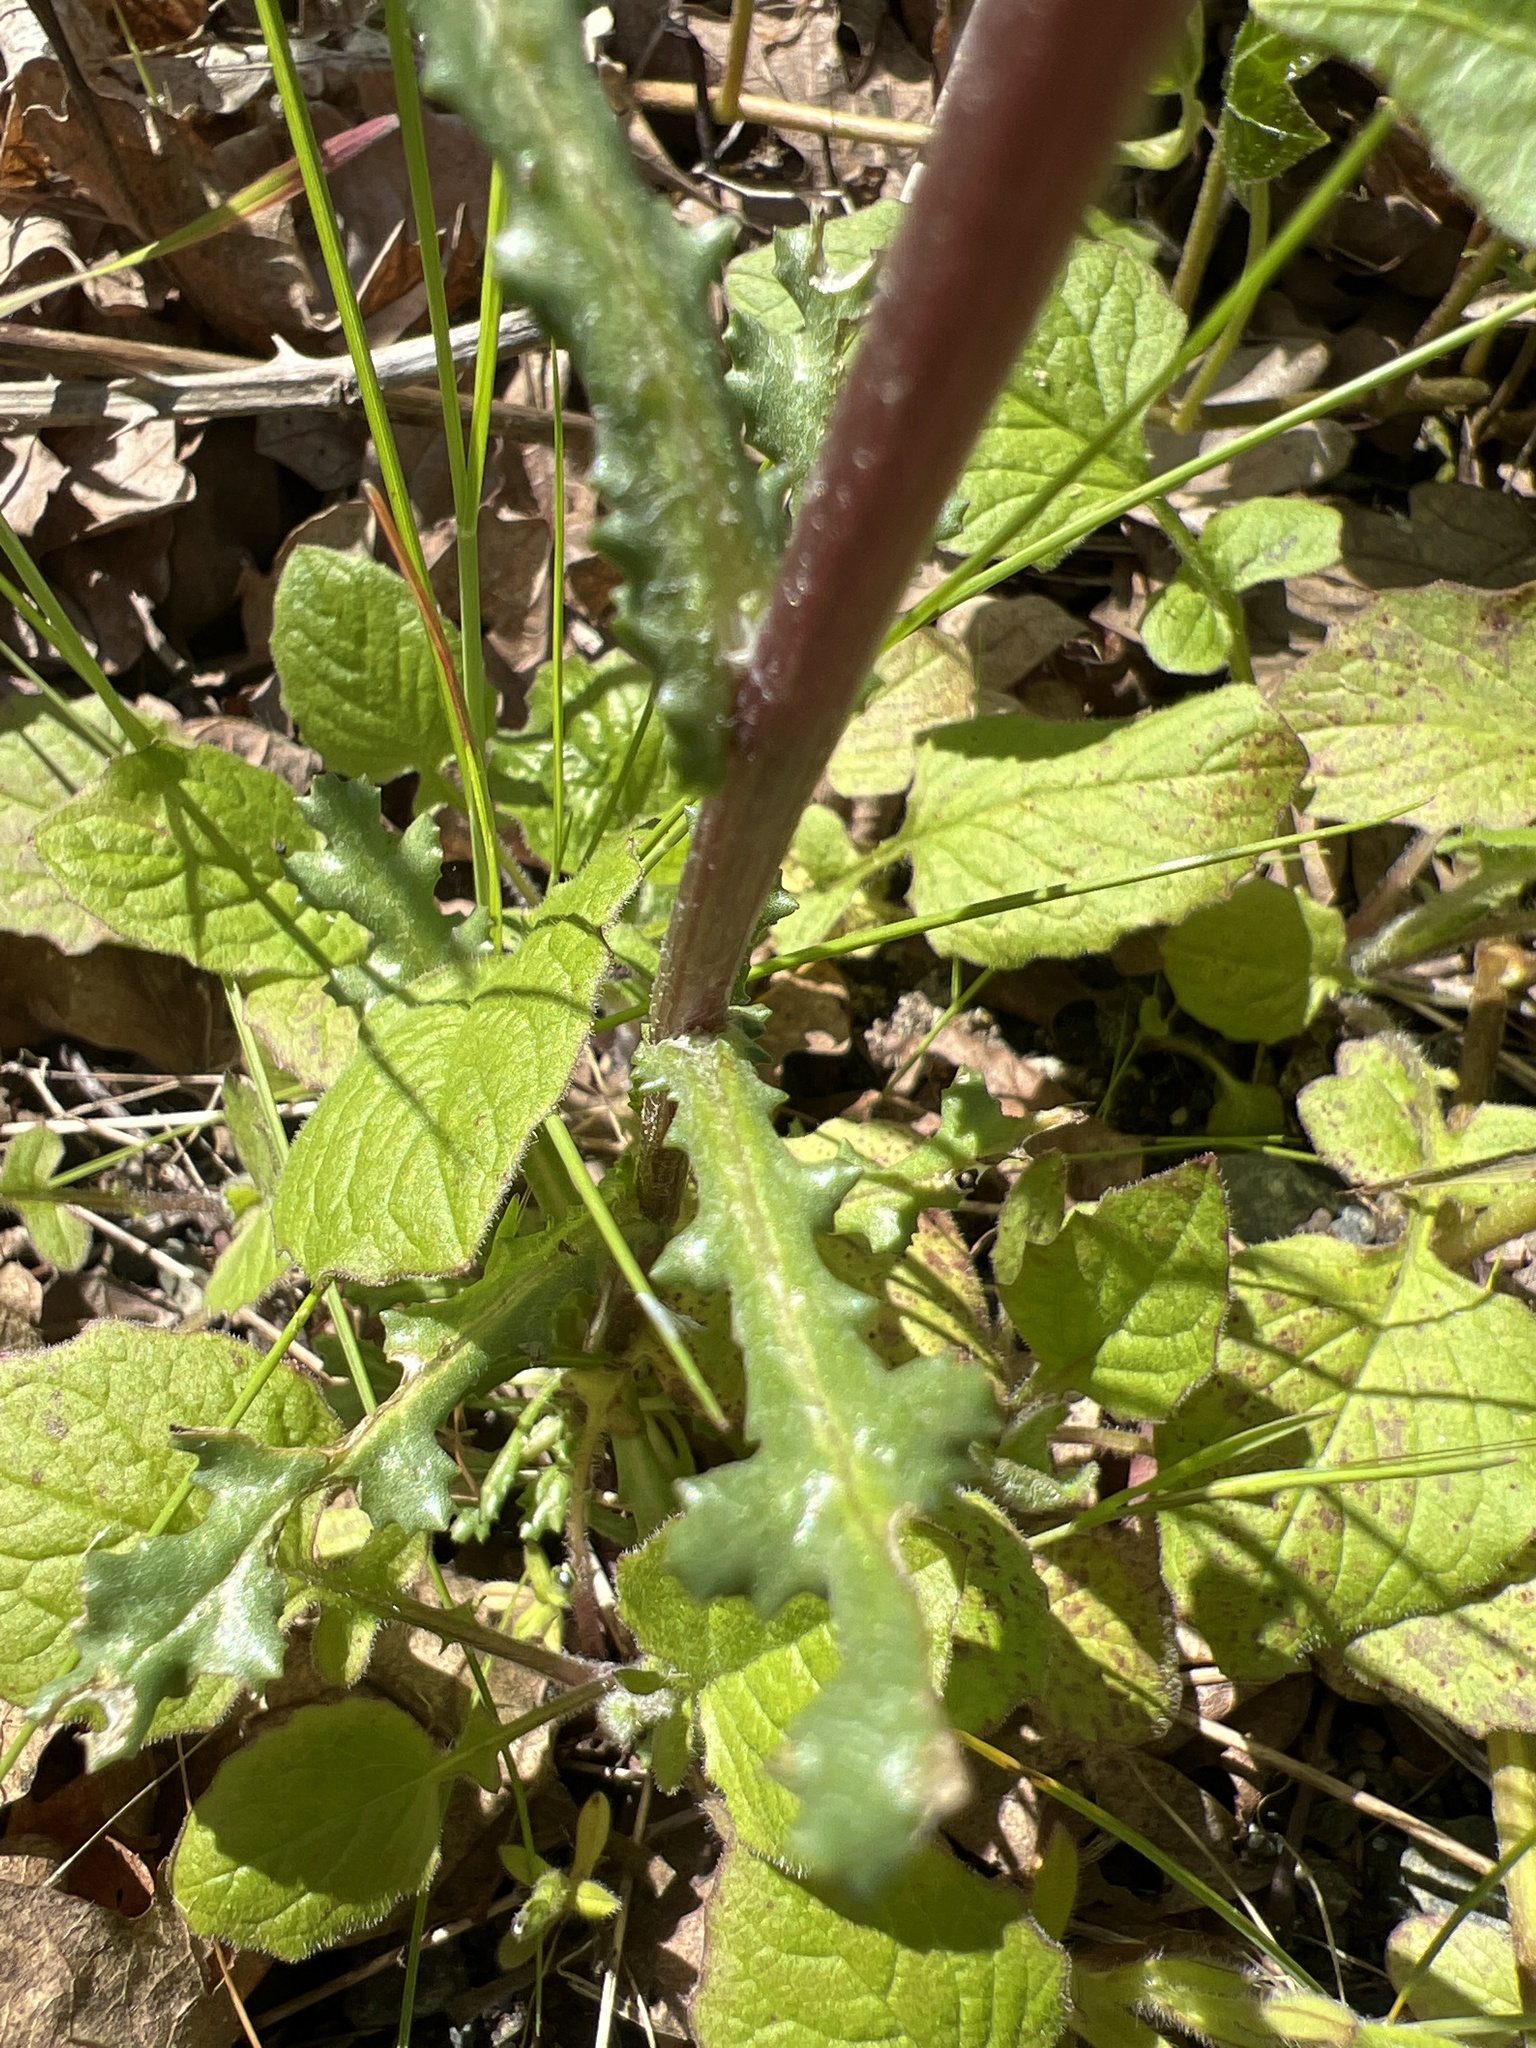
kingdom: Plantae
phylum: Tracheophyta
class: Magnoliopsida
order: Asterales
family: Asteraceae
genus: Senecio
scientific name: Senecio vulgaris
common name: Old-man-in-the-spring
